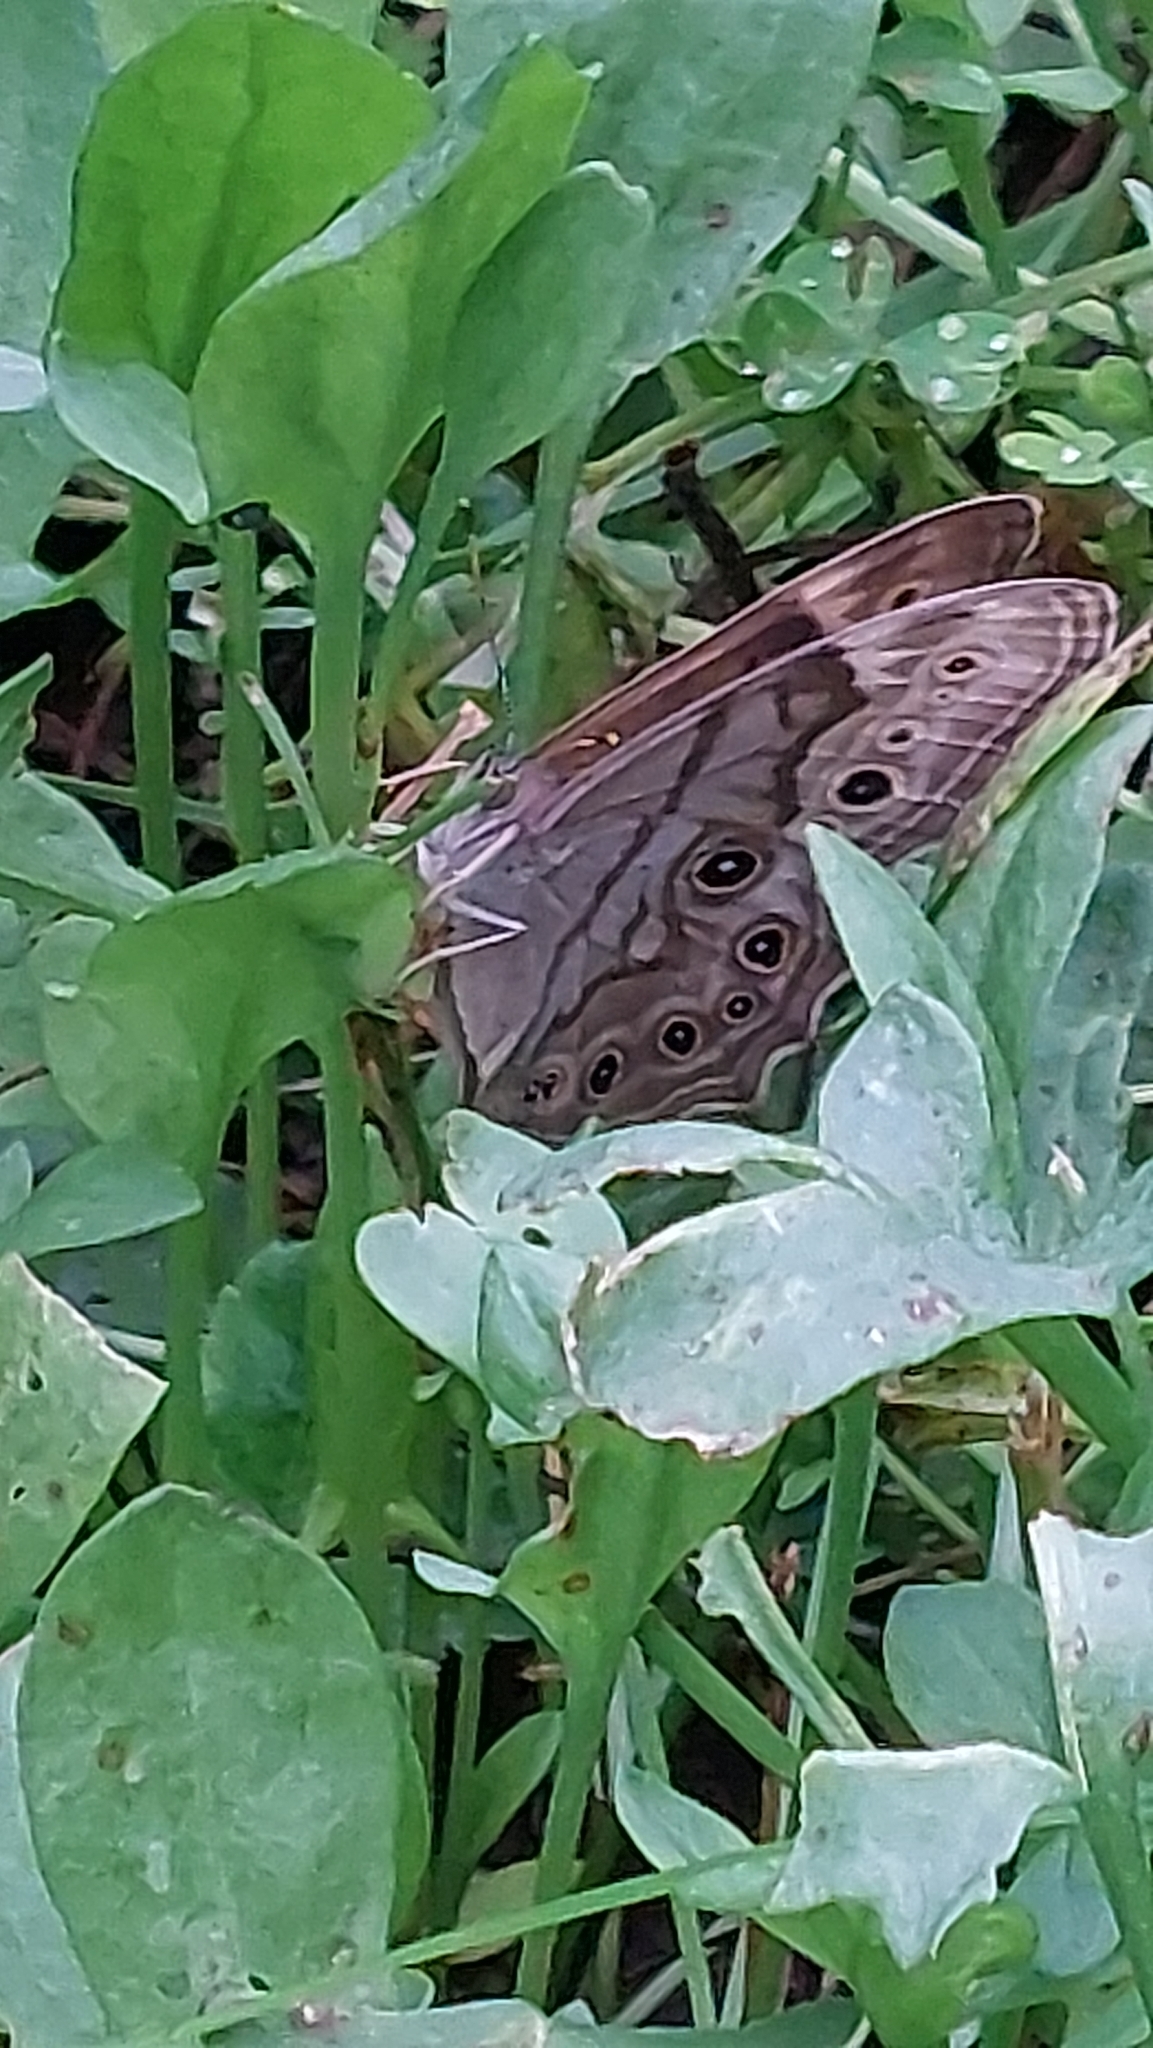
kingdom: Animalia
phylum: Arthropoda
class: Insecta
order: Lepidoptera
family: Nymphalidae
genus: Lethe
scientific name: Lethe anthedon
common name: Northern pearly-eye
